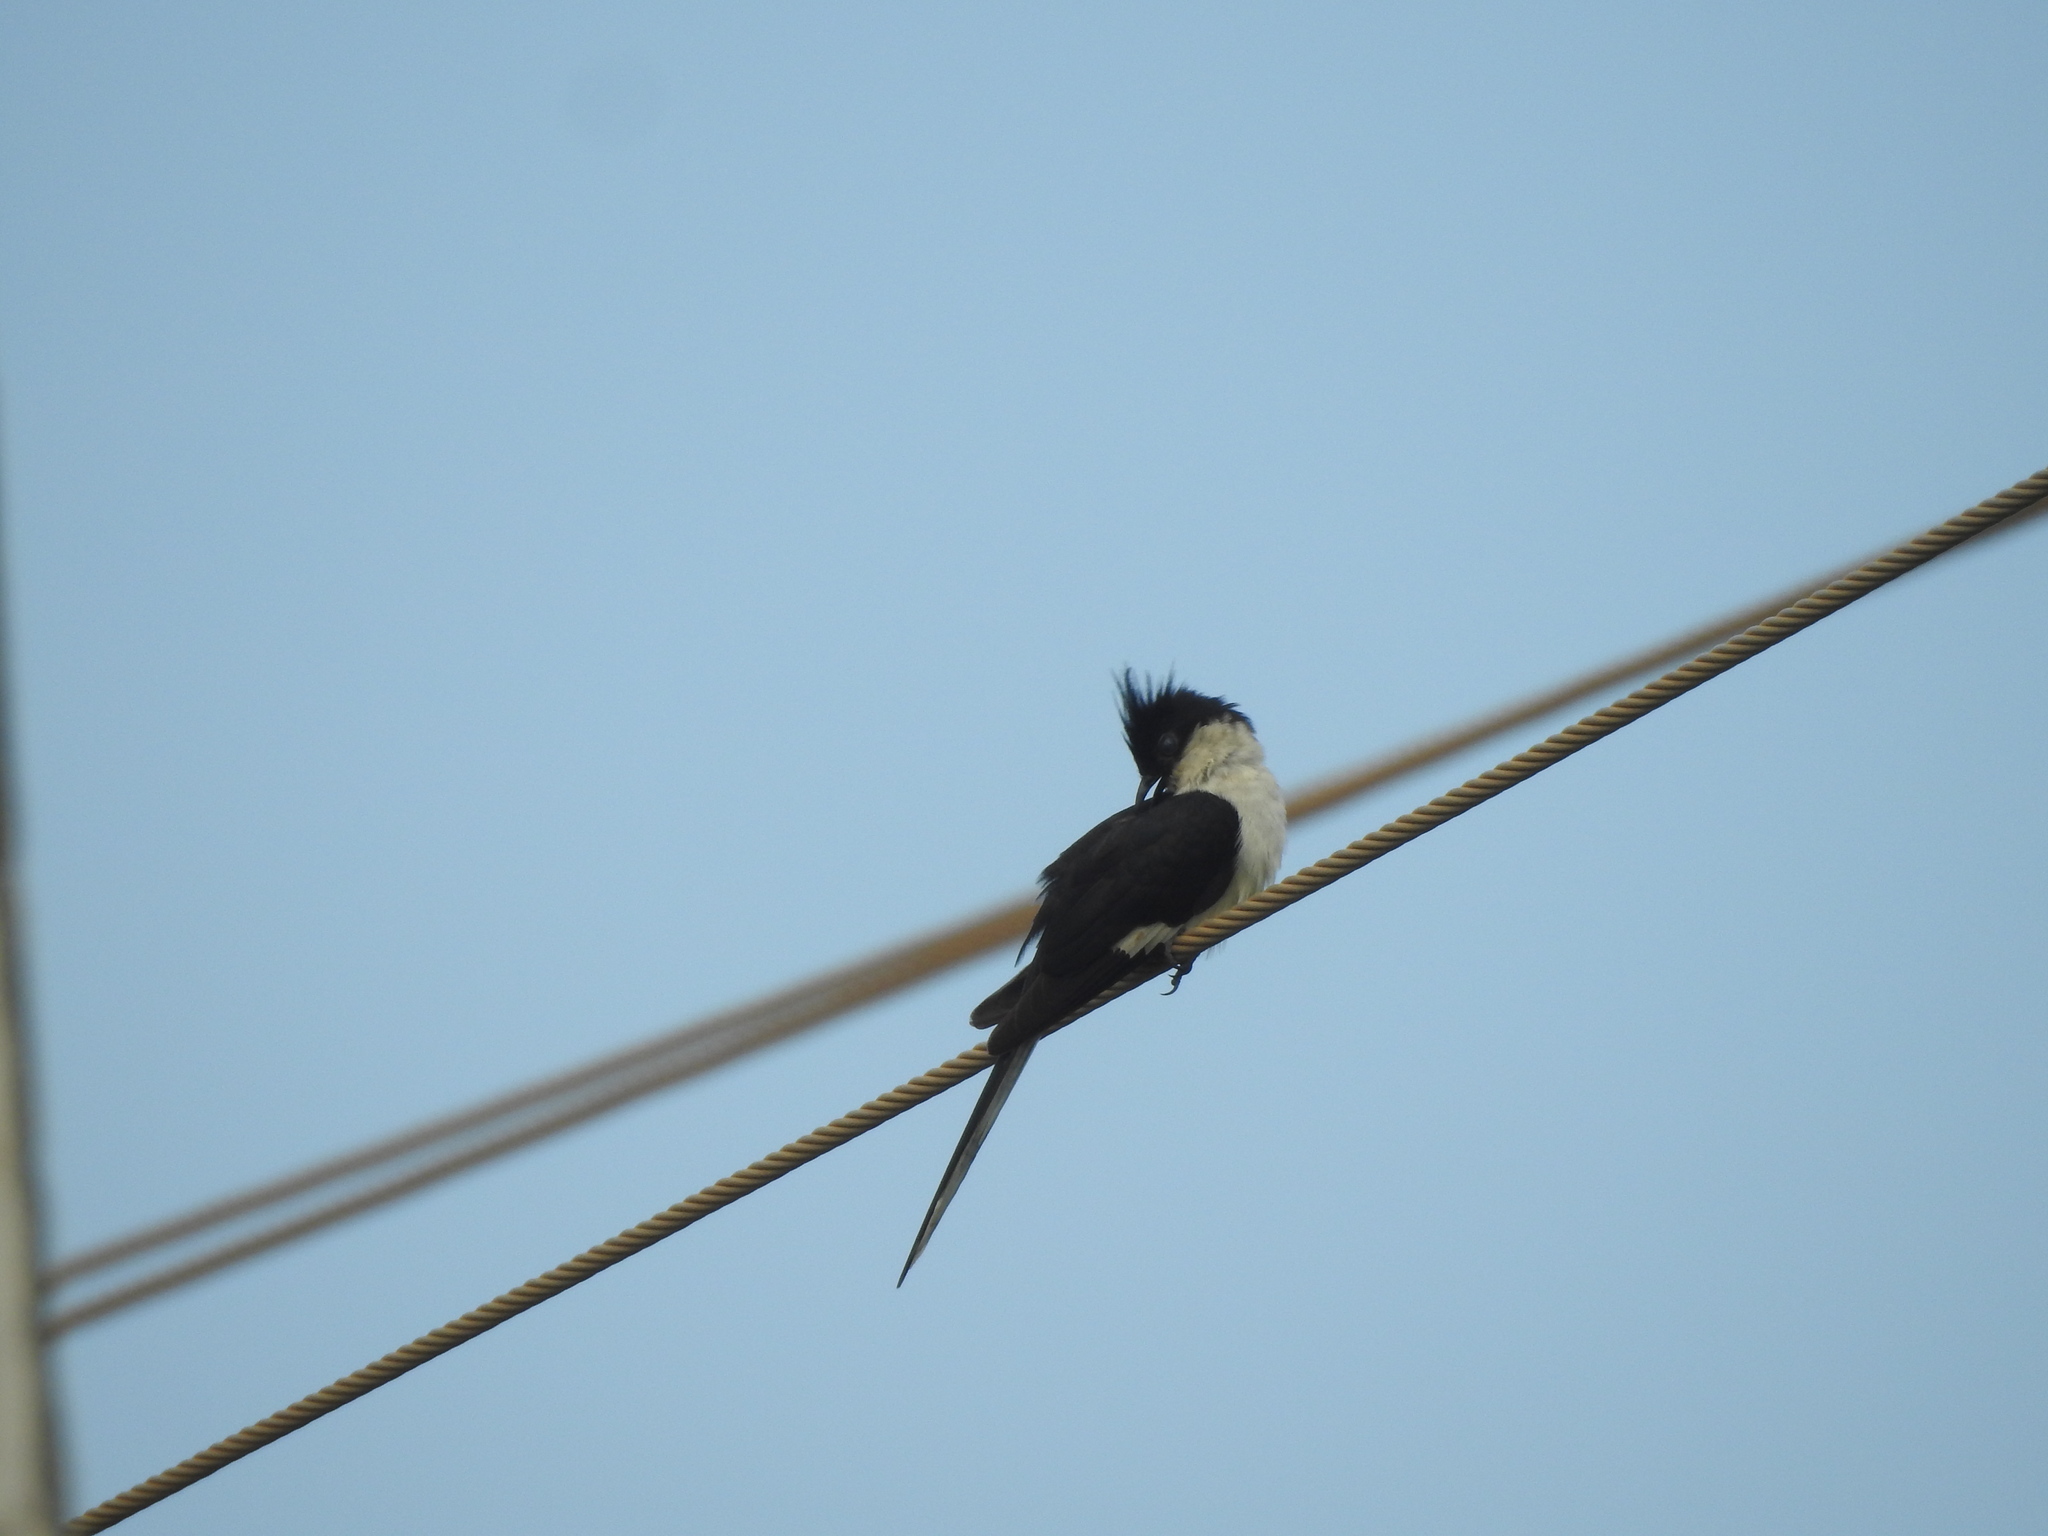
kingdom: Animalia
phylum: Chordata
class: Aves
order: Cuculiformes
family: Cuculidae
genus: Clamator
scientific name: Clamator jacobinus
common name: Jacobin cuckoo
